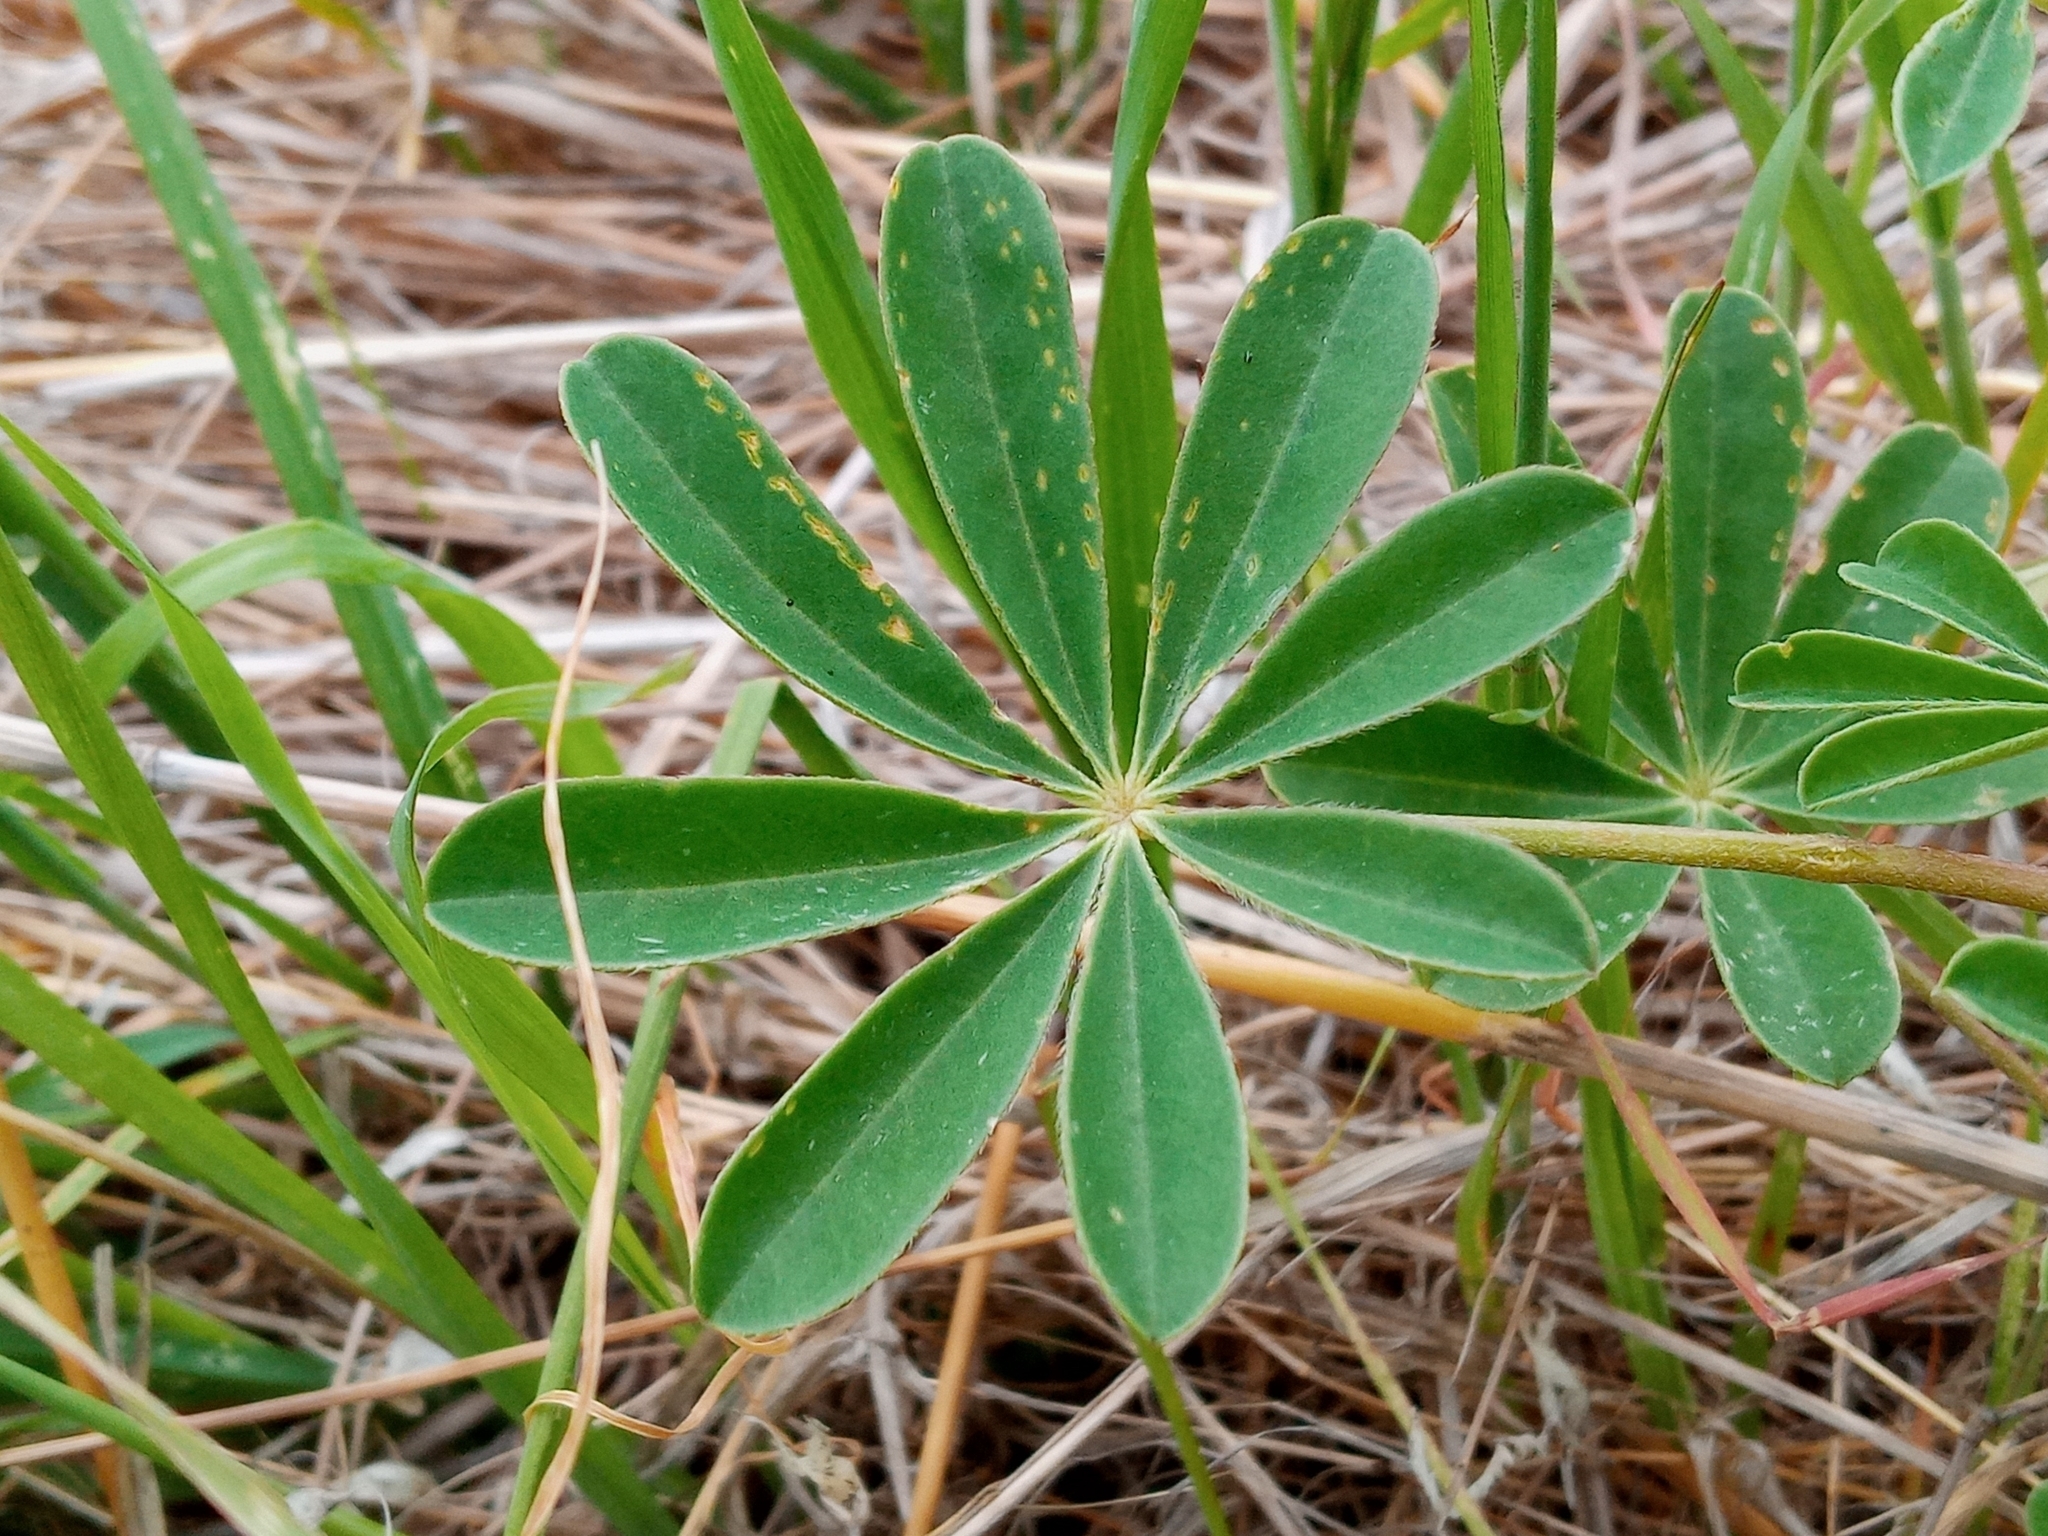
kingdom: Plantae
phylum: Tracheophyta
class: Magnoliopsida
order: Fabales
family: Fabaceae
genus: Lupinus
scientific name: Lupinus succulentus
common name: Arroyo lupine
